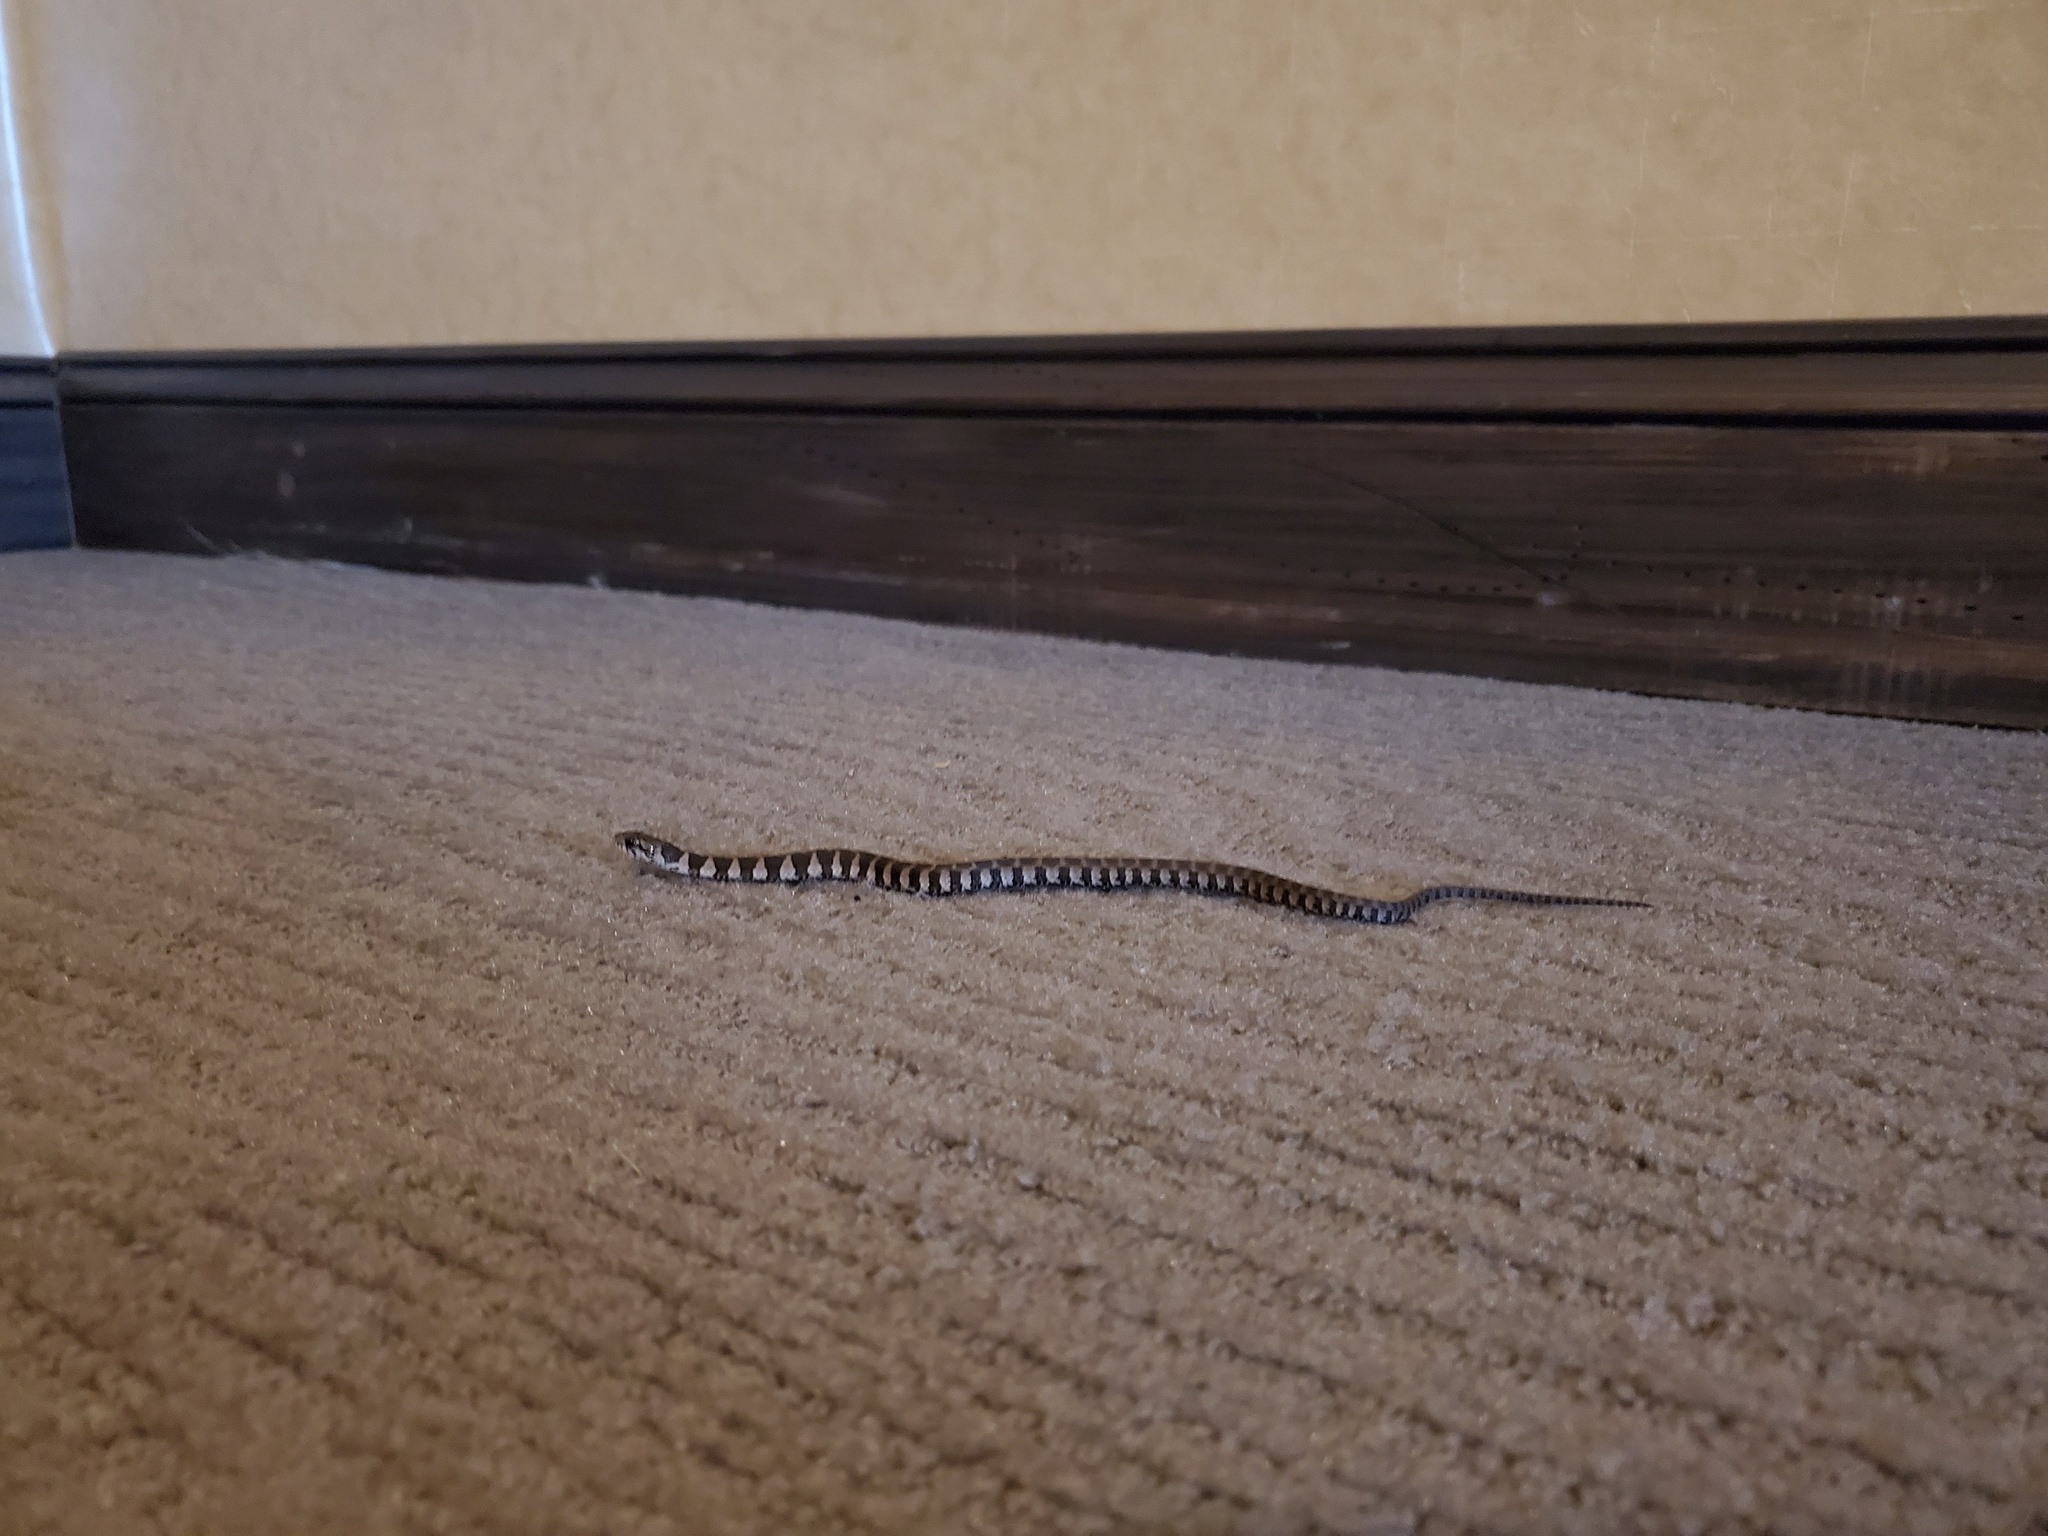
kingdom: Animalia
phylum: Chordata
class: Squamata
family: Colubridae
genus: Nerodia
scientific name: Nerodia sipedon
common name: Northern water snake
